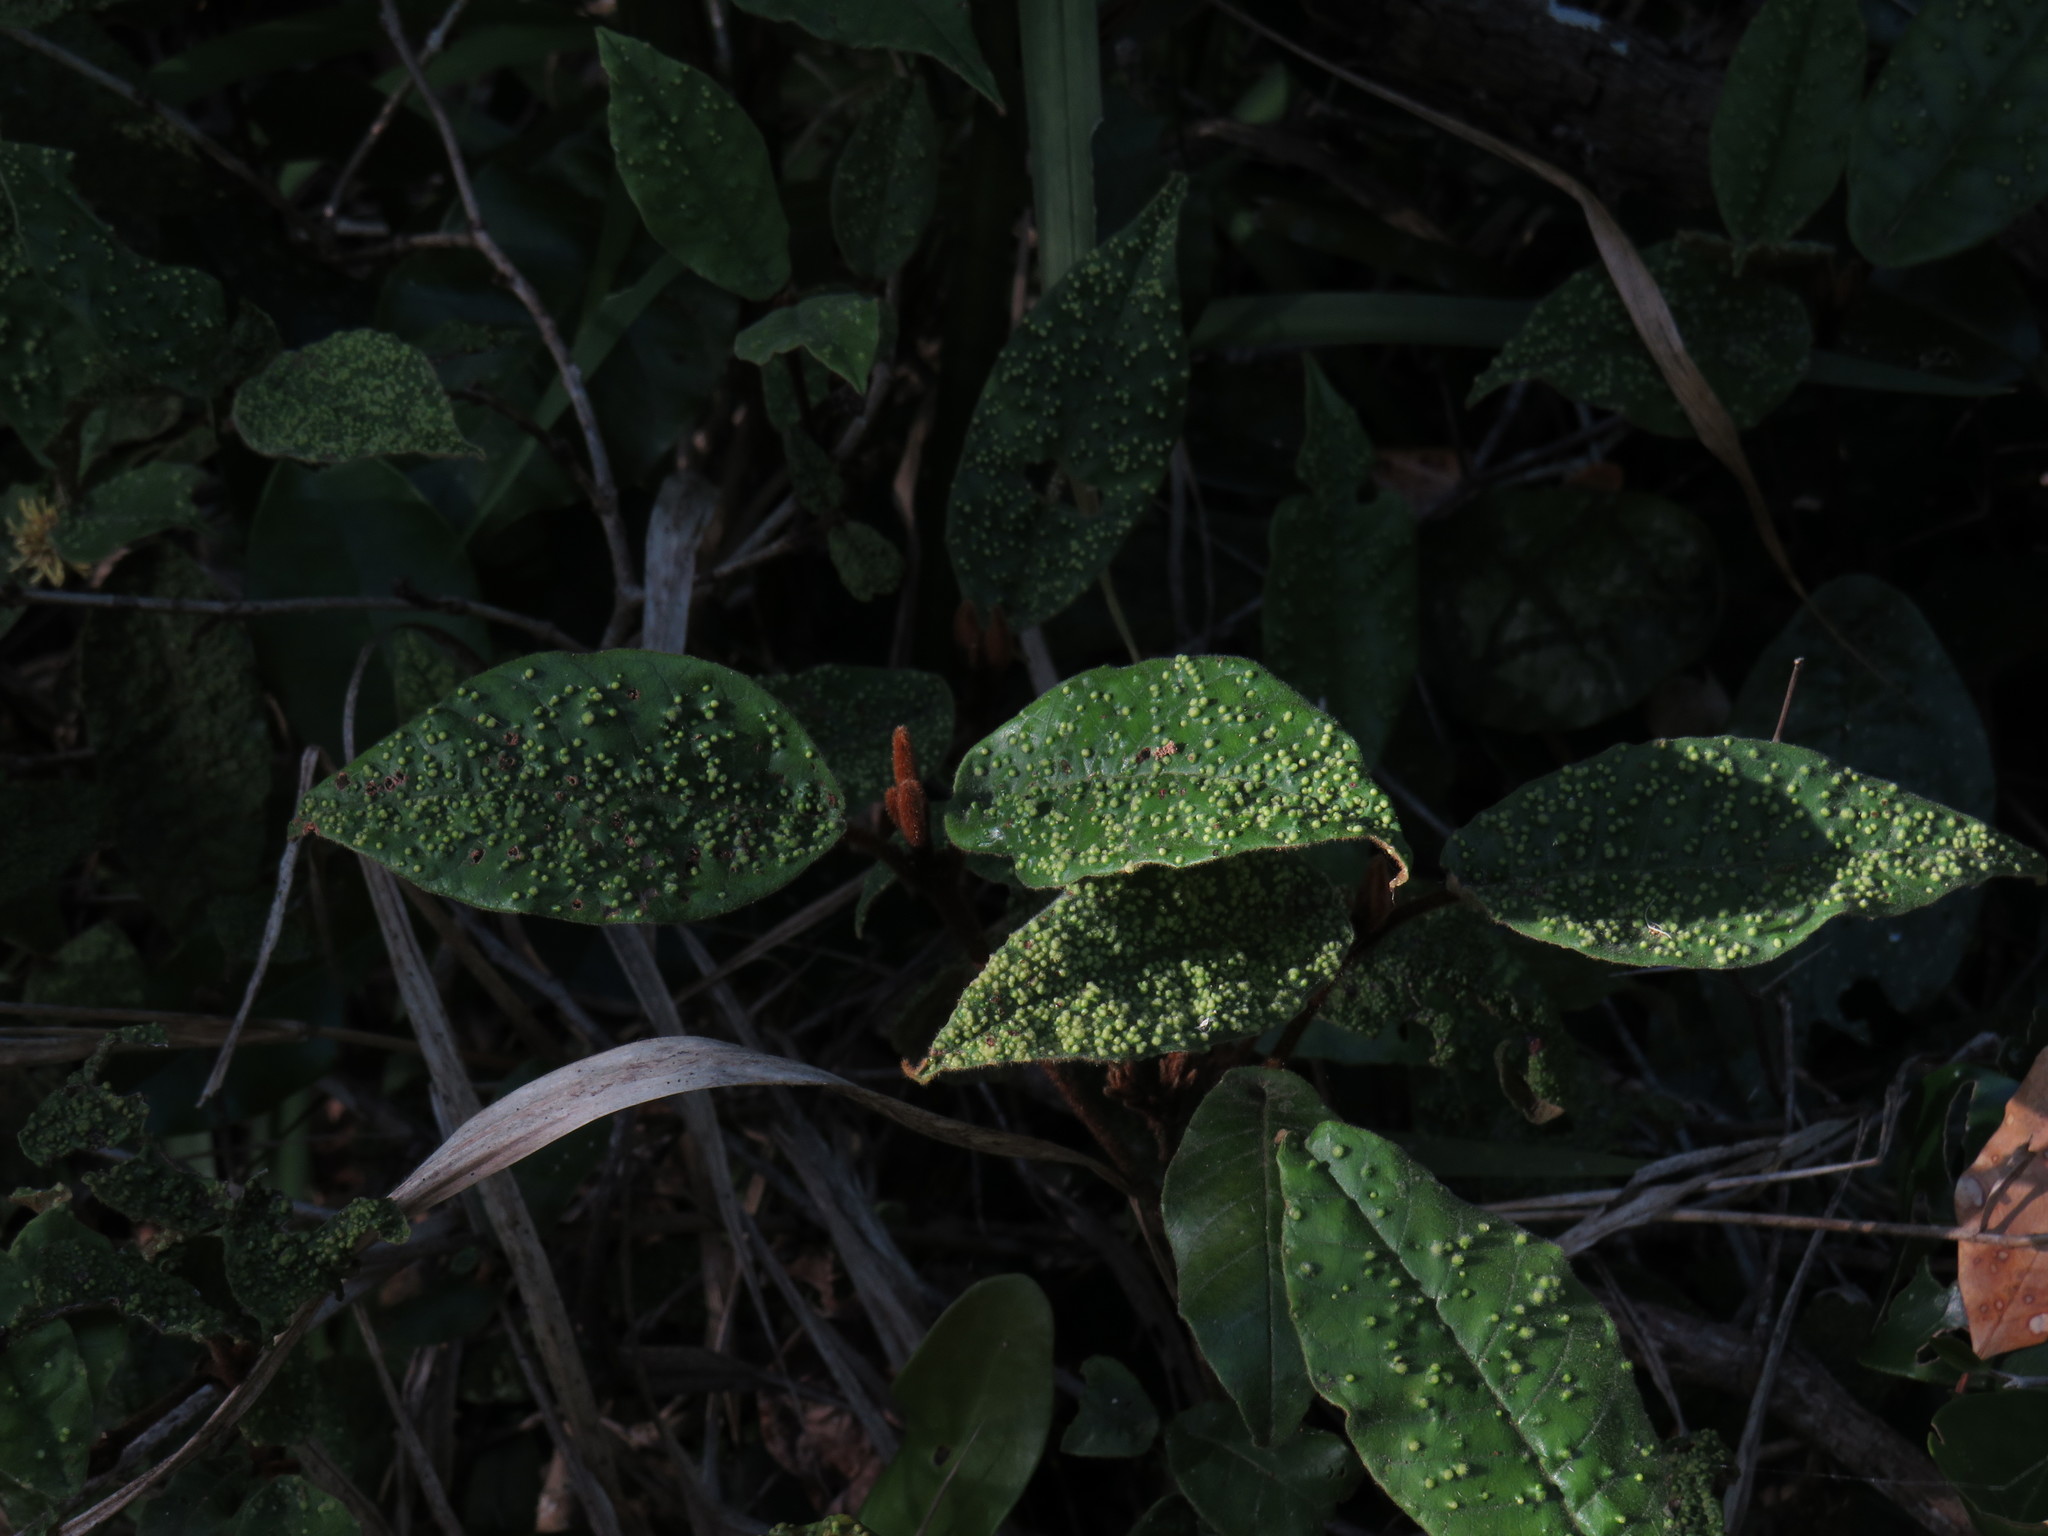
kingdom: Plantae
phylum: Tracheophyta
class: Magnoliopsida
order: Saxifragales
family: Hamamelidaceae
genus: Trichocladus
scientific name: Trichocladus crinitus
